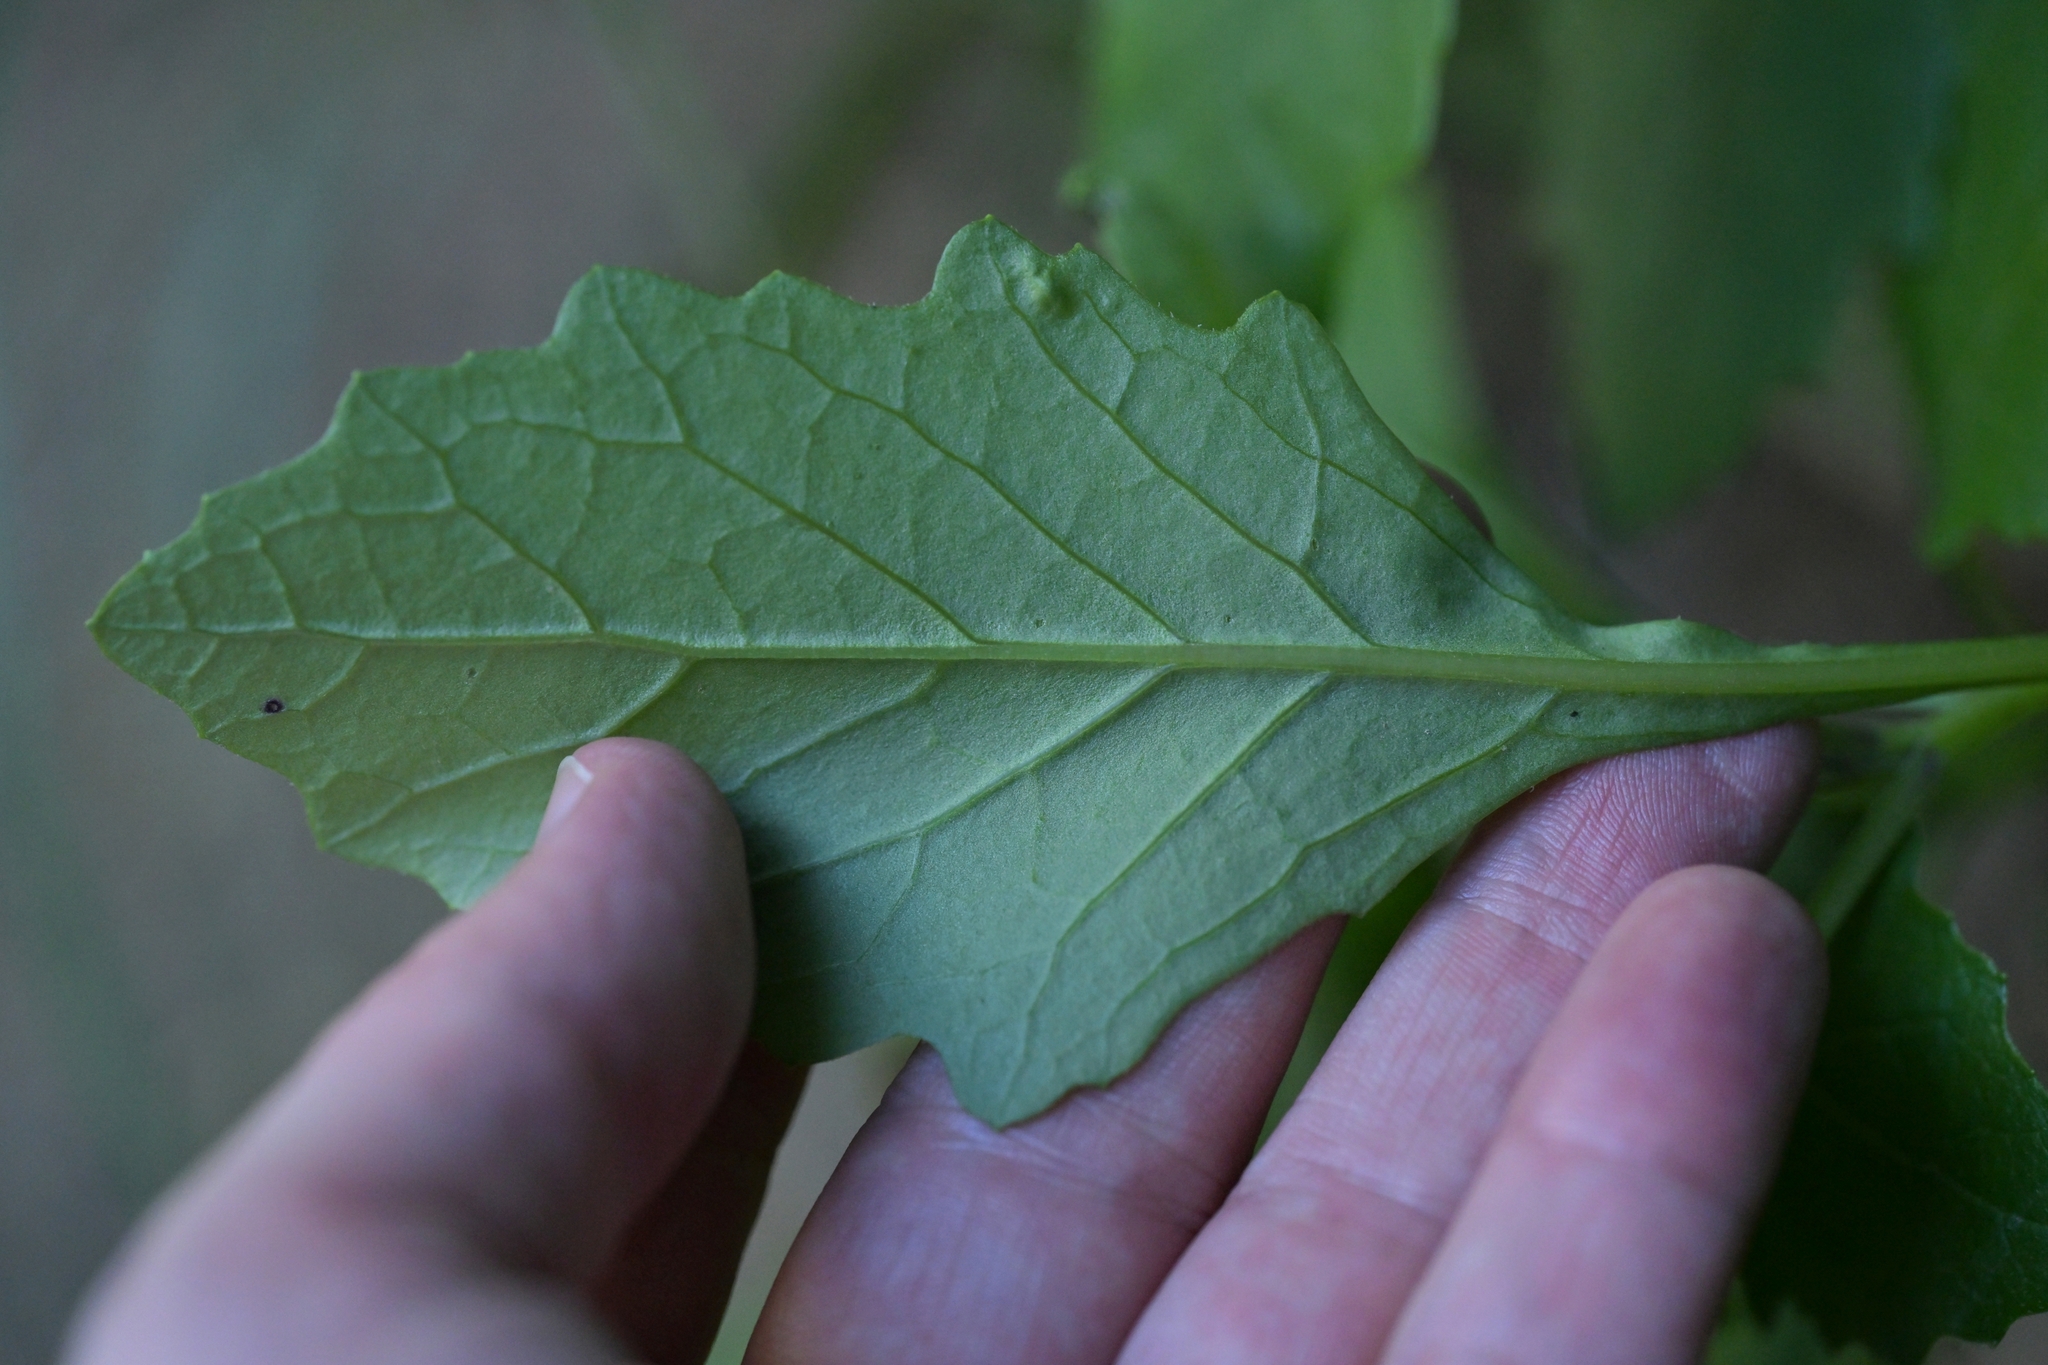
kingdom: Plantae
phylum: Tracheophyta
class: Magnoliopsida
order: Asterales
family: Asteraceae
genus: Senecio
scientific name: Senecio rufiglandulosus
